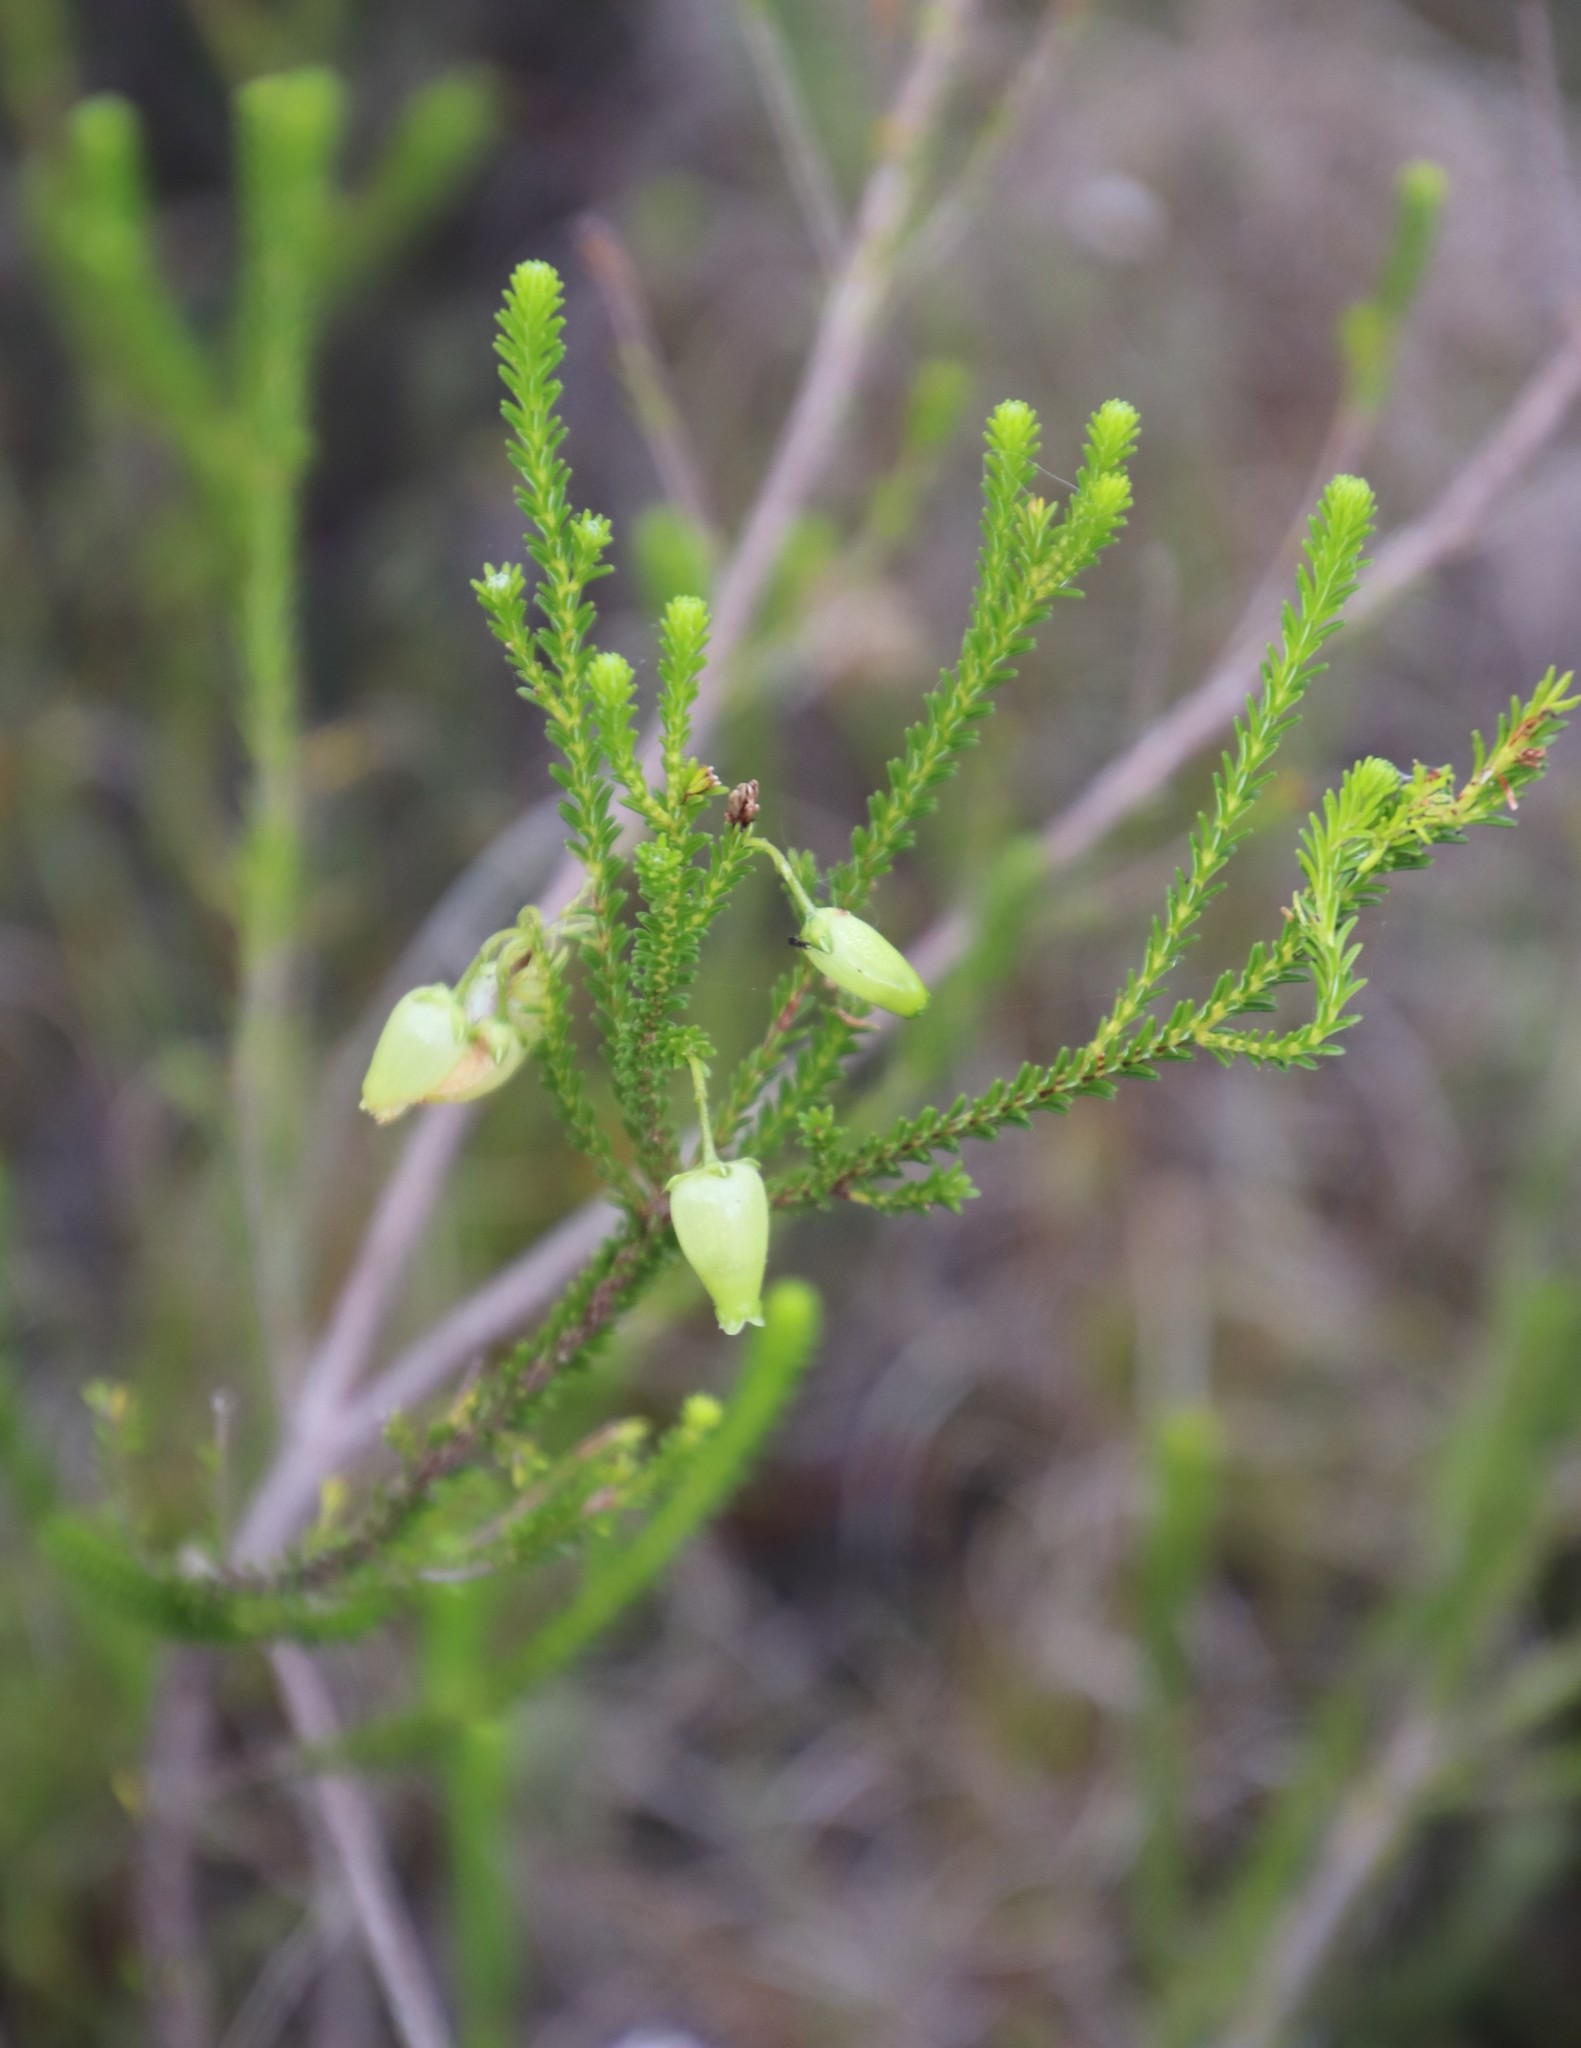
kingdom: Plantae
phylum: Tracheophyta
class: Magnoliopsida
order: Ericales
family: Ericaceae
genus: Erica
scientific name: Erica urna-viridis
